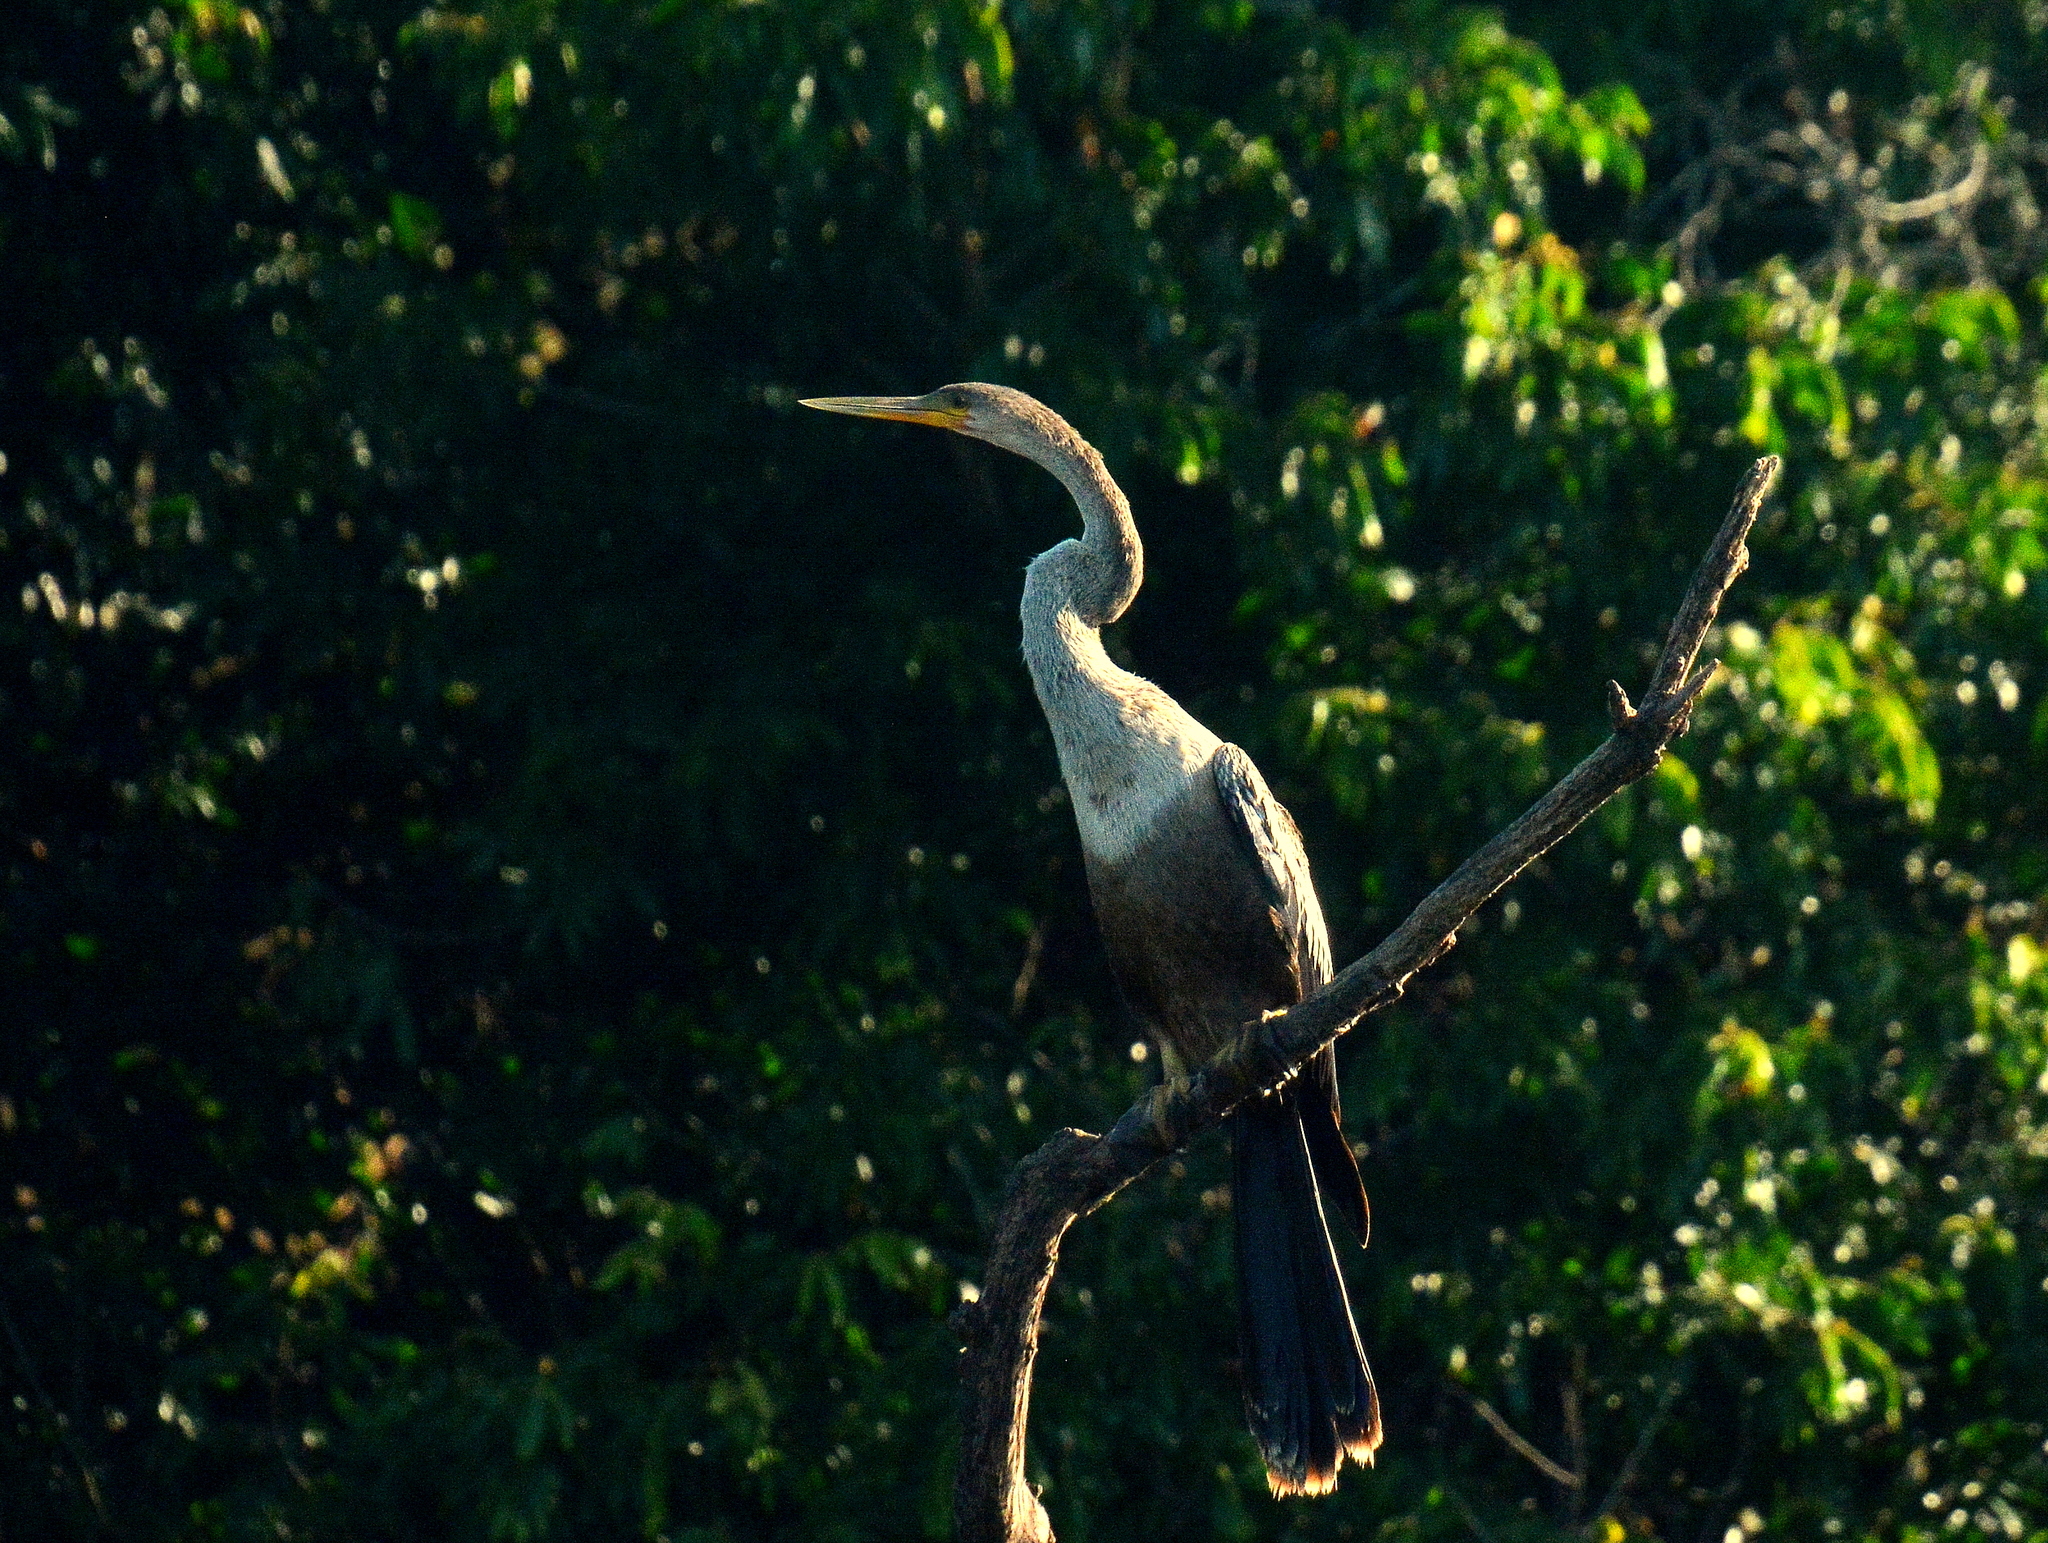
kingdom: Animalia
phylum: Chordata
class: Aves
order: Suliformes
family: Anhingidae
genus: Anhinga
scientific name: Anhinga anhinga
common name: Anhinga
